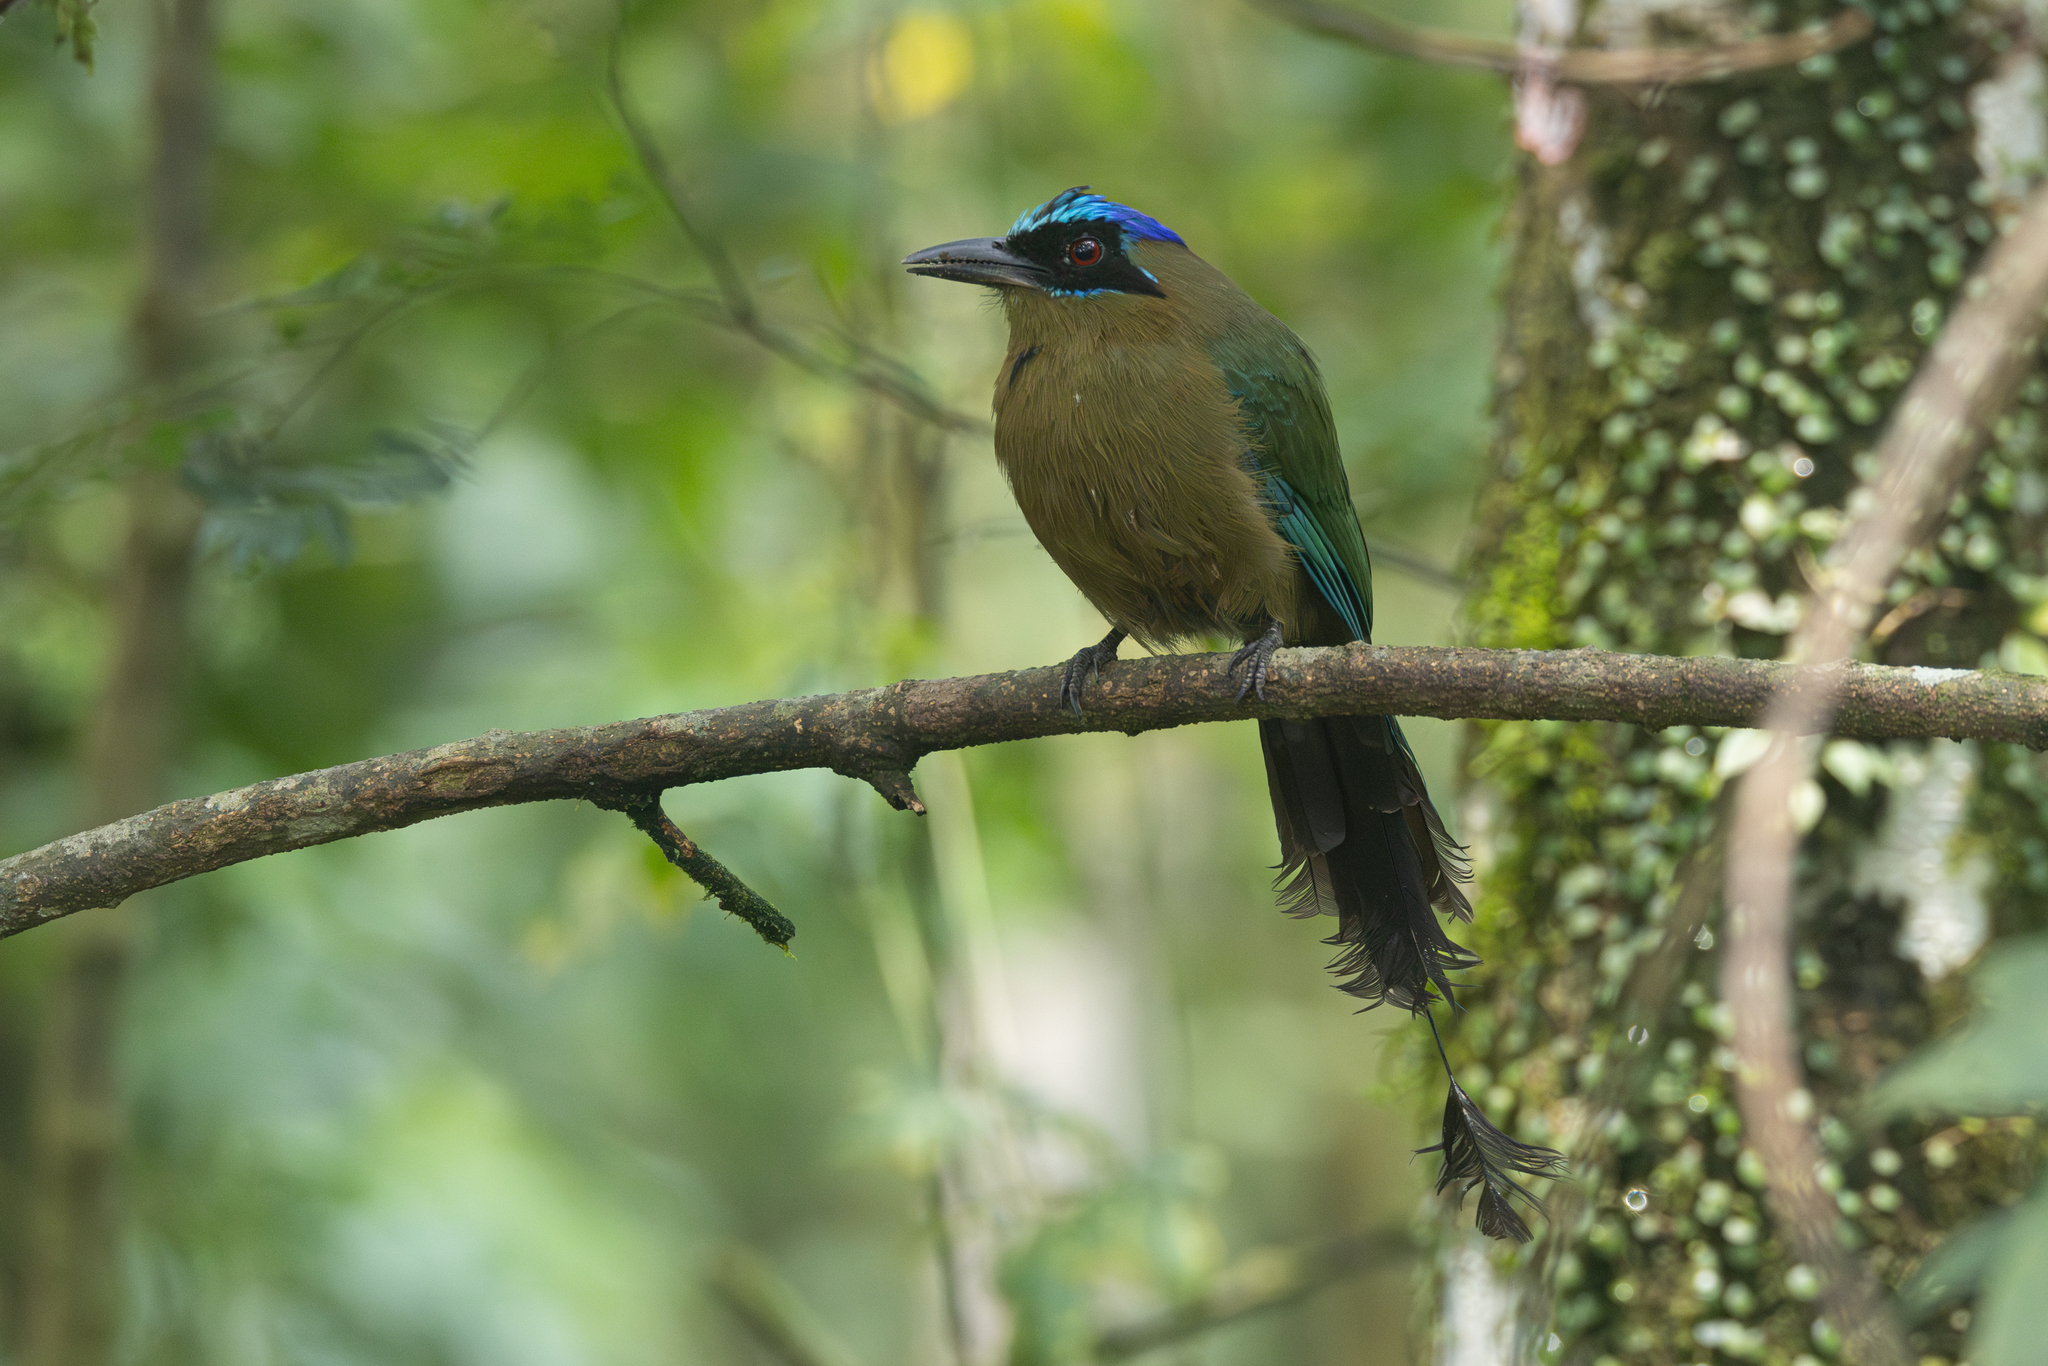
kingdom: Animalia
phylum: Chordata
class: Aves
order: Coraciiformes
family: Momotidae
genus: Momotus
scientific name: Momotus momota
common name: Amazonian motmot
